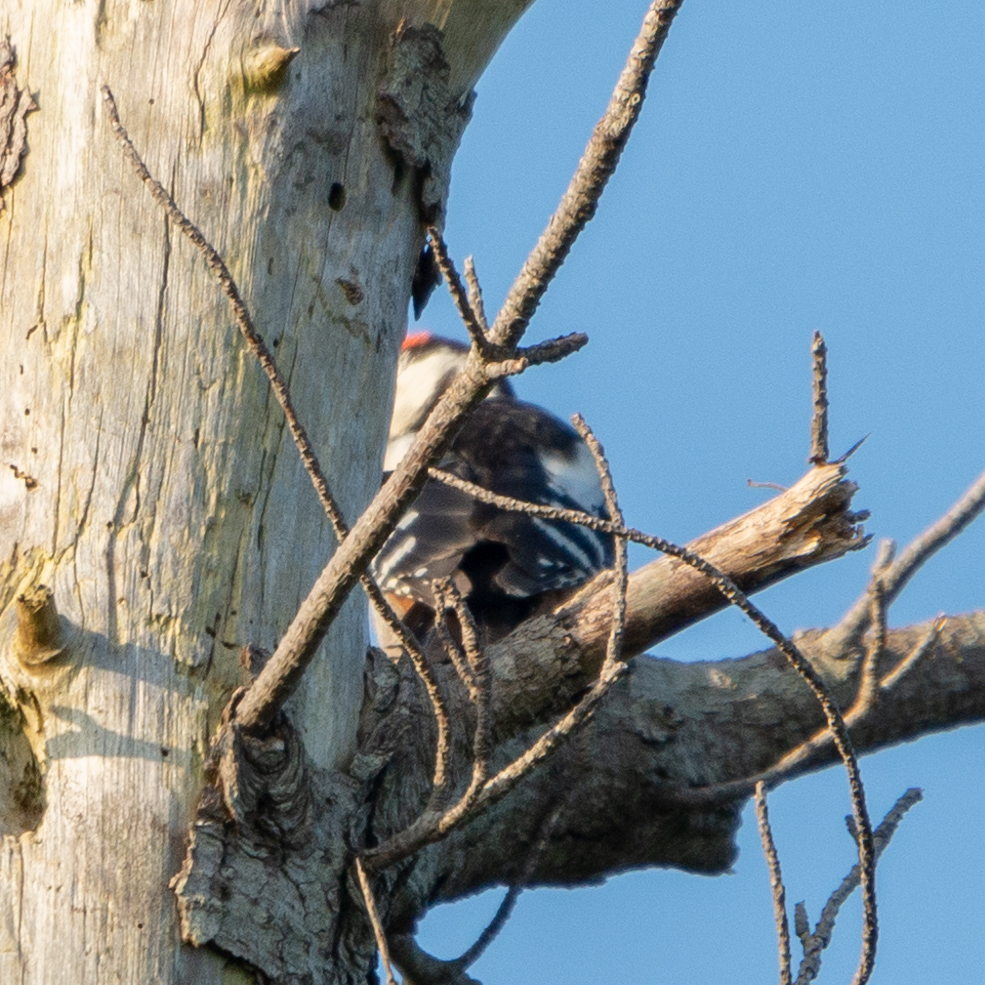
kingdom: Animalia
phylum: Chordata
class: Aves
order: Piciformes
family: Picidae
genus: Dendrocopos
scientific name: Dendrocopos major
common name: Great spotted woodpecker
